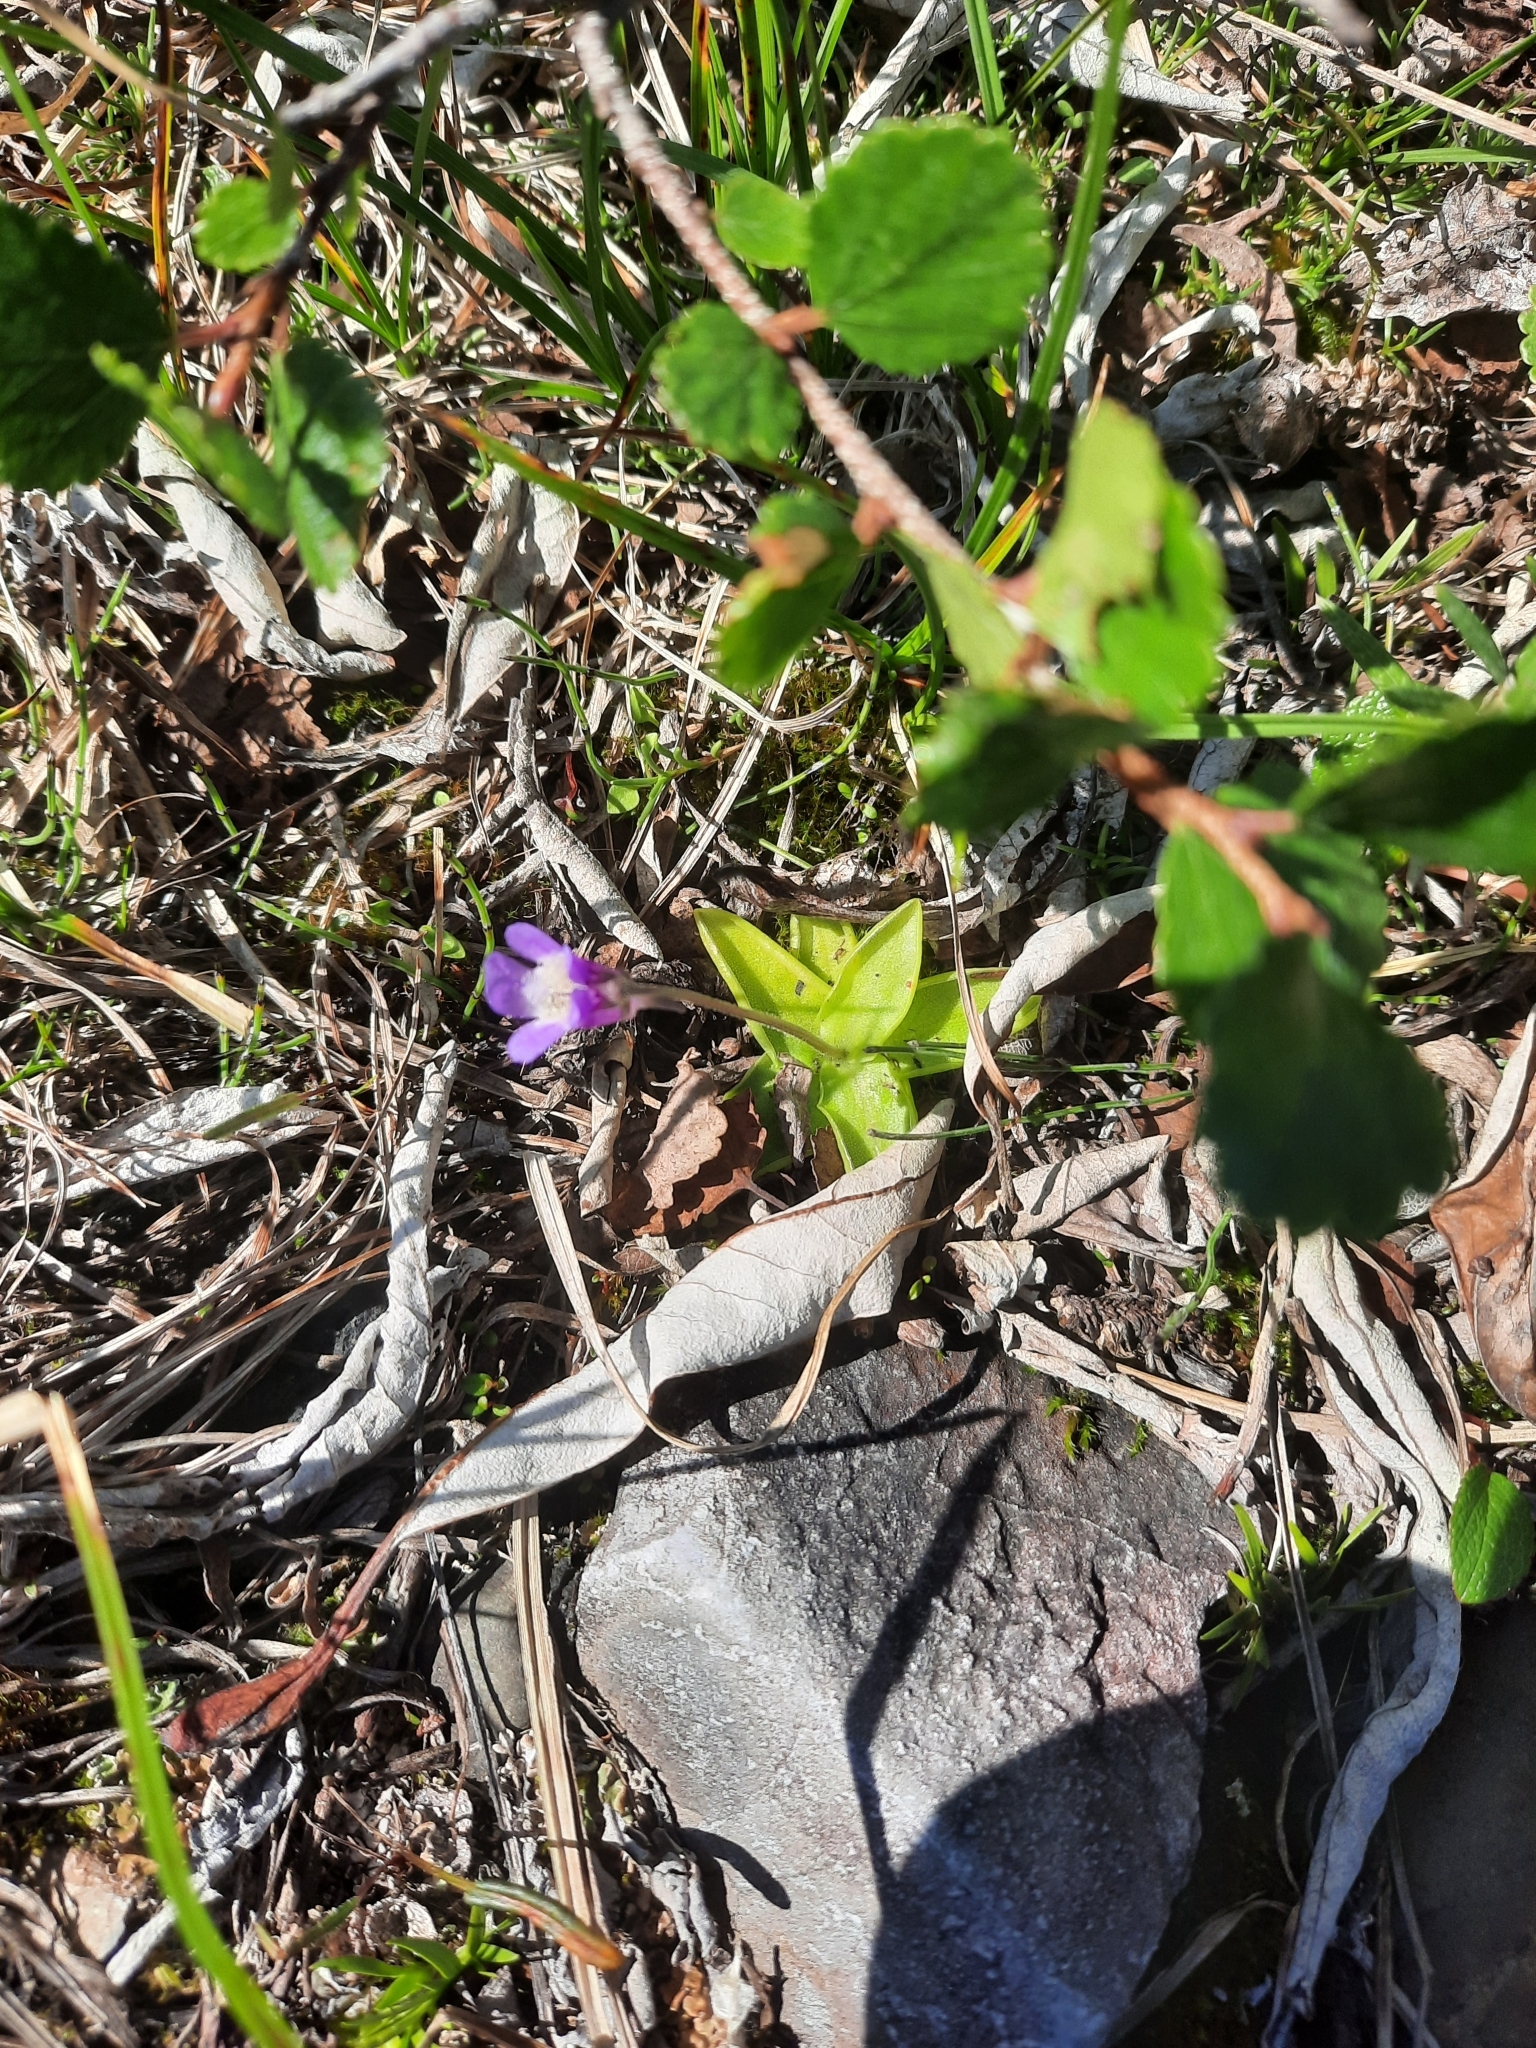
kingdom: Plantae
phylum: Tracheophyta
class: Magnoliopsida
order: Lamiales
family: Lentibulariaceae
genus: Pinguicula
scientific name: Pinguicula vulgaris
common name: Common butterwort
